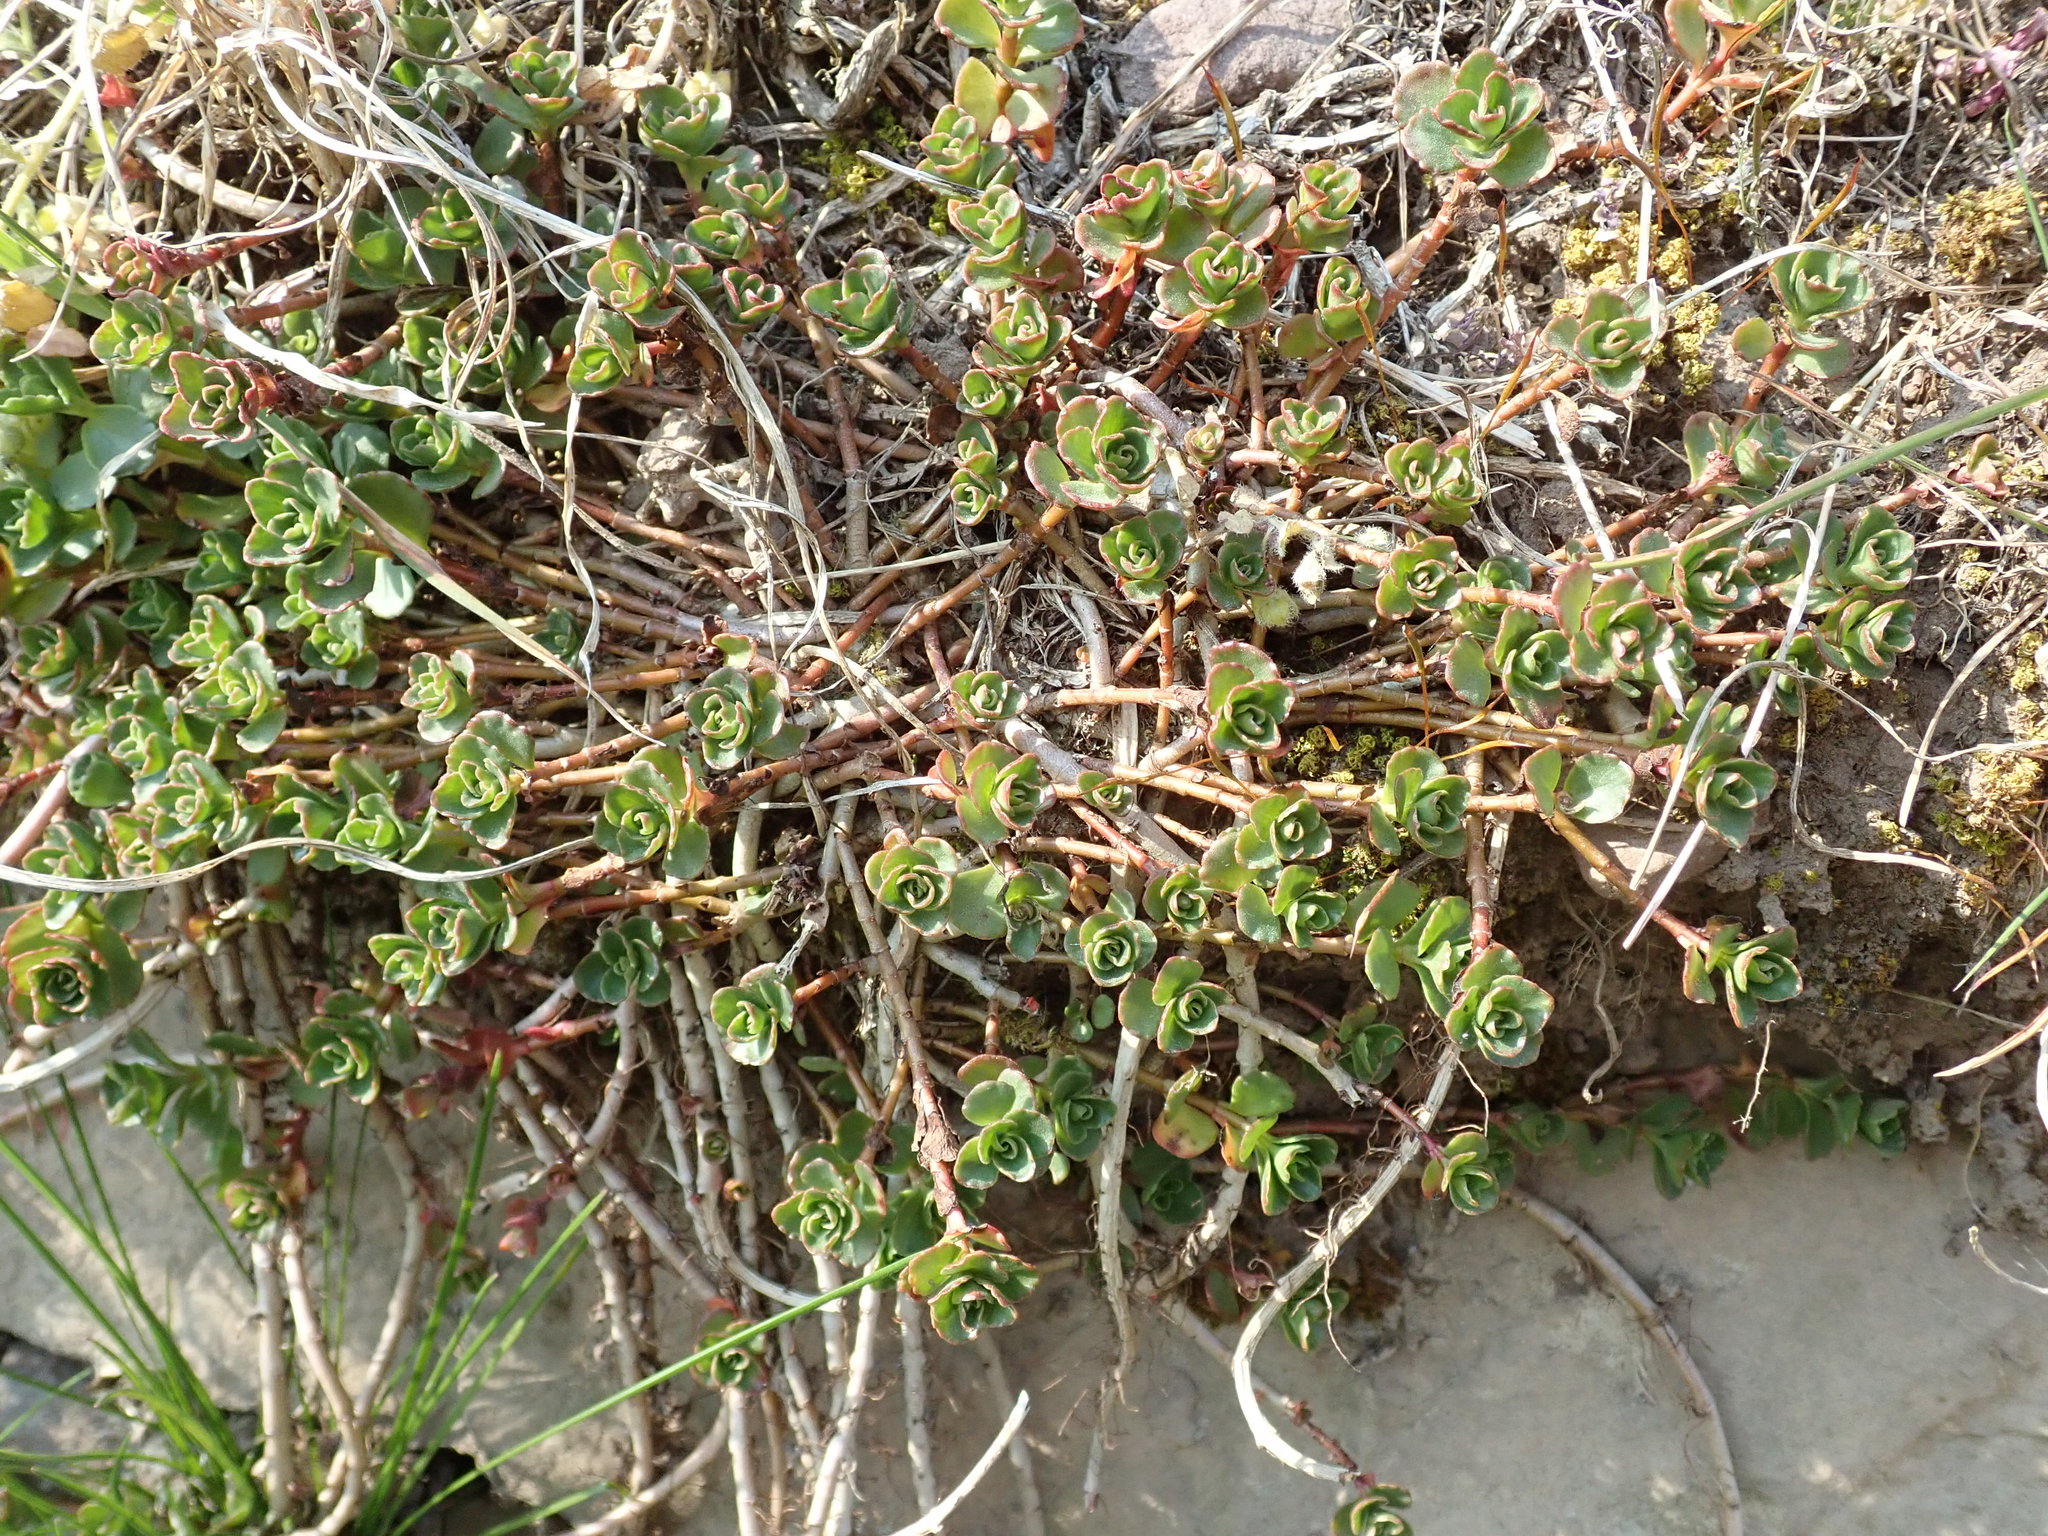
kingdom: Plantae
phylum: Tracheophyta
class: Magnoliopsida
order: Saxifragales
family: Crassulaceae
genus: Phedimus
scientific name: Phedimus spurius
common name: Caucasian stonecrop
